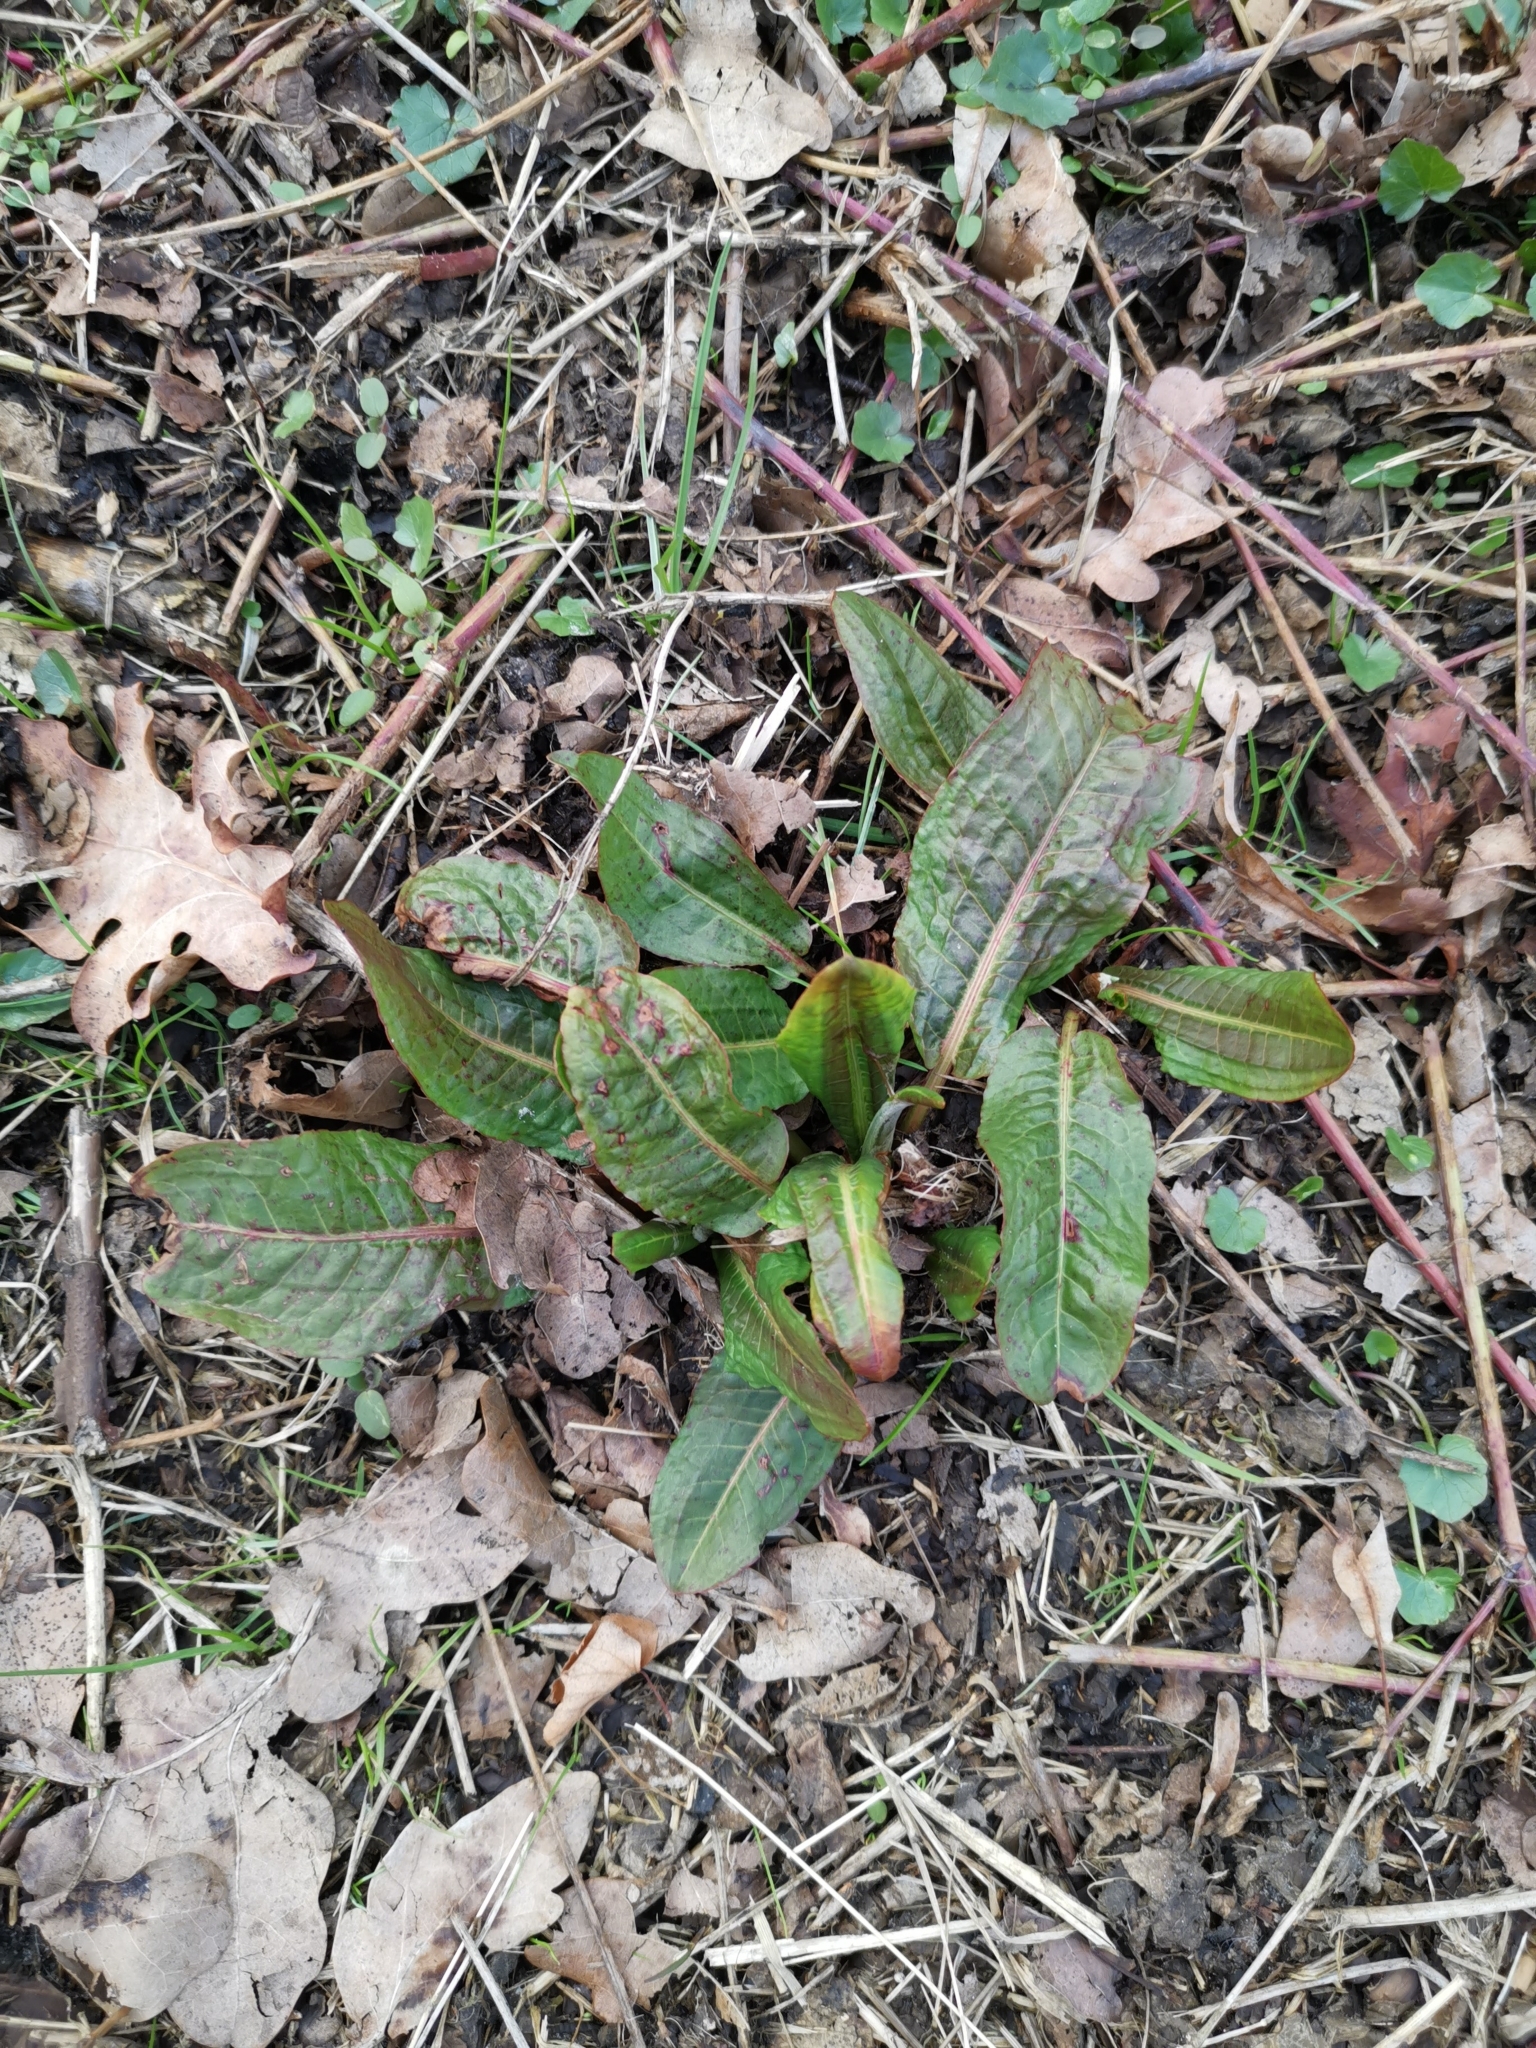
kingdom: Plantae
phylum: Tracheophyta
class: Magnoliopsida
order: Caryophyllales
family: Polygonaceae
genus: Rumex
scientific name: Rumex obtusifolius
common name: Bitter dock
